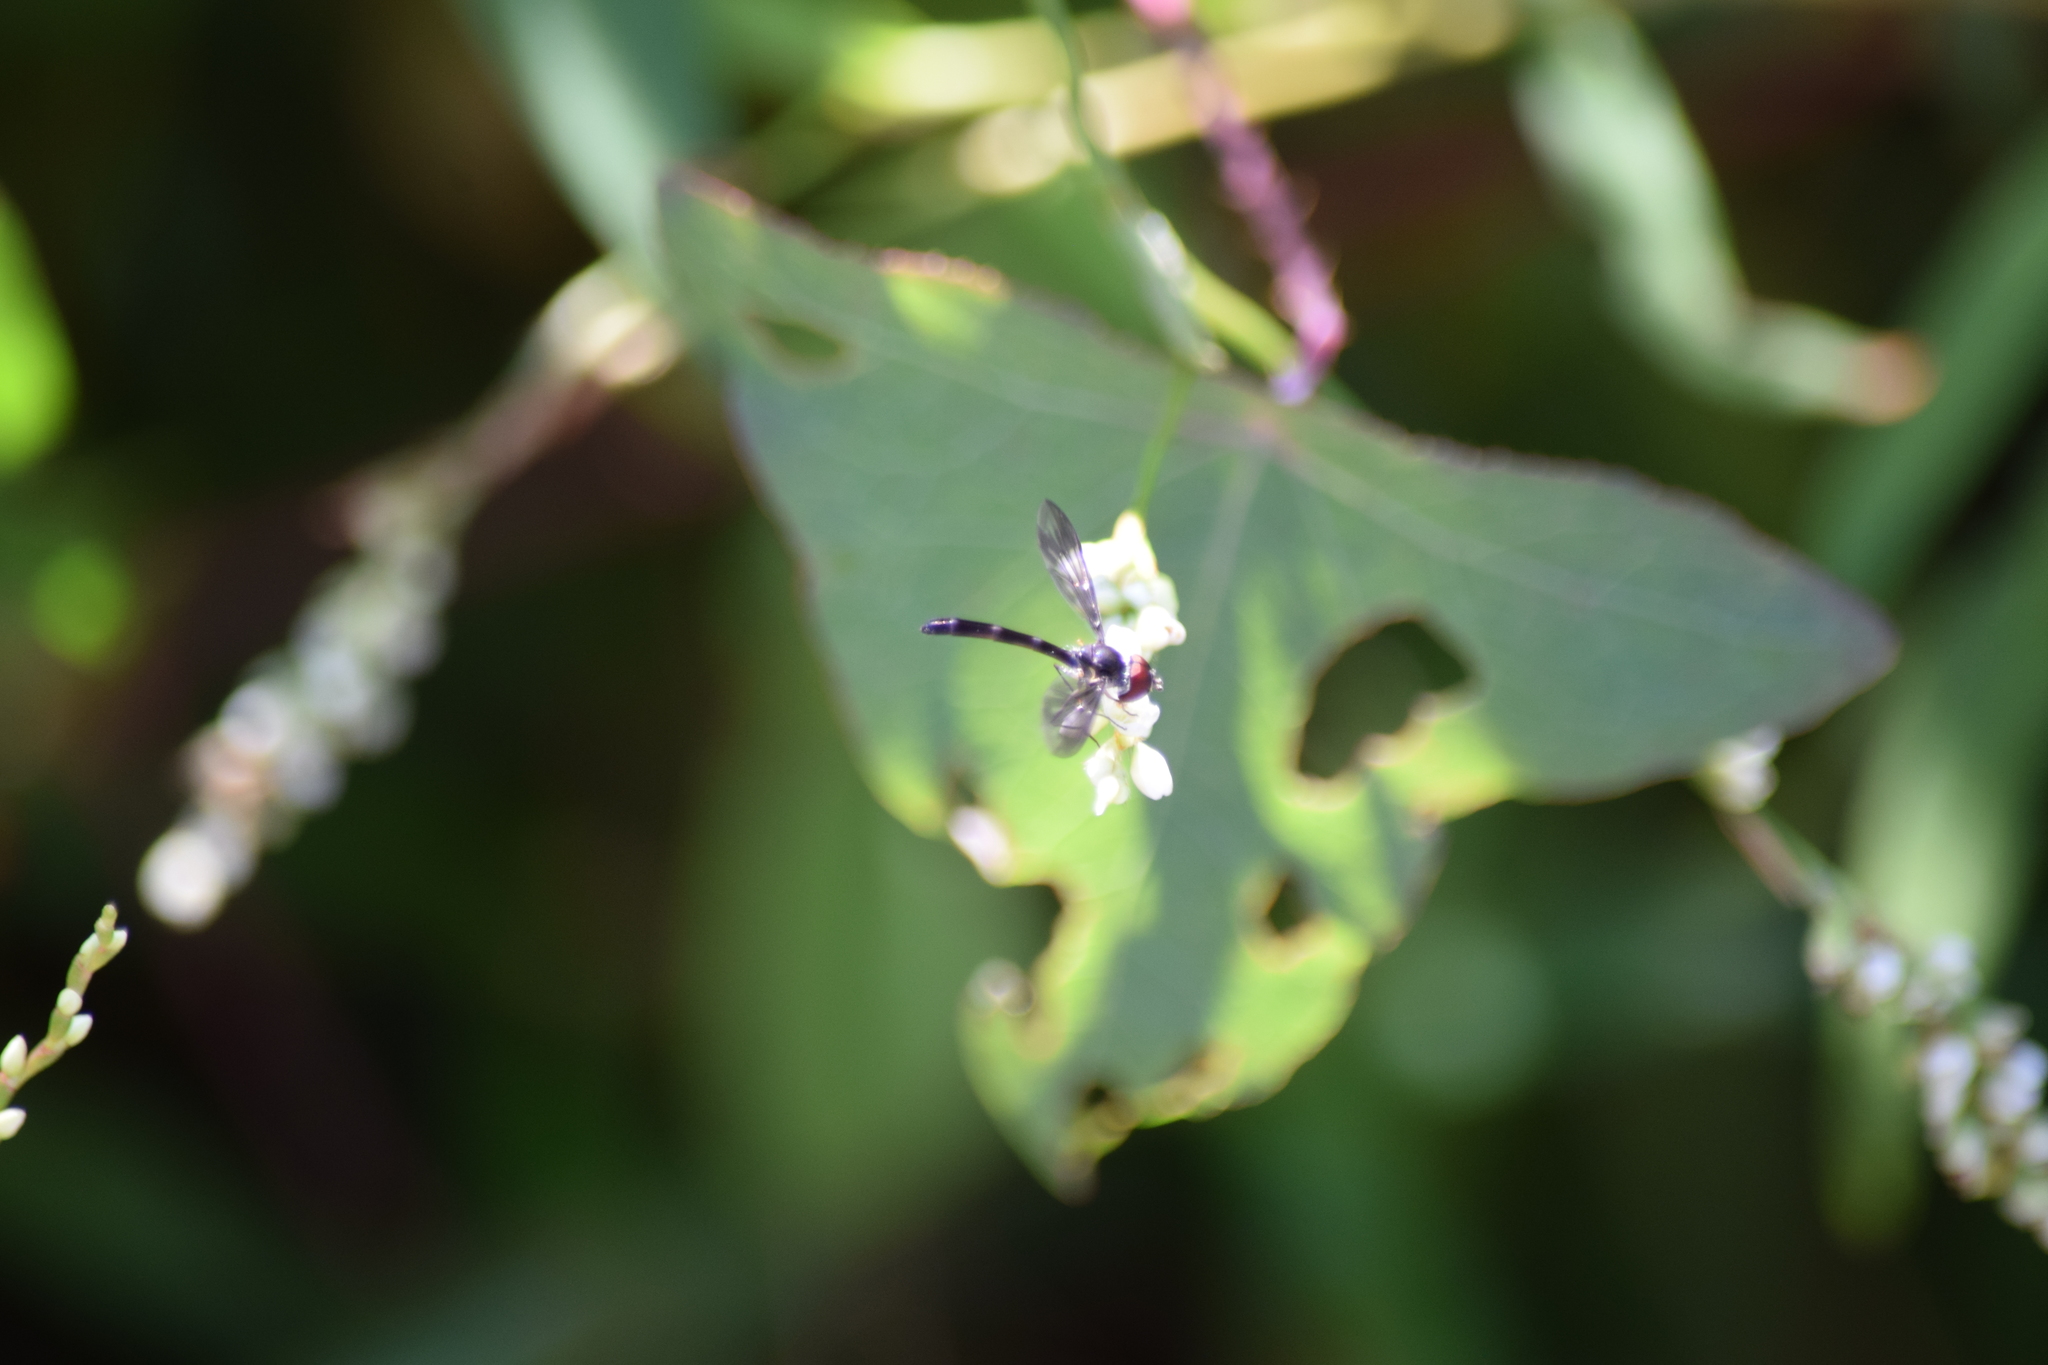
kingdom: Animalia
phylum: Arthropoda
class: Insecta
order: Diptera
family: Syrphidae
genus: Ocyptamus
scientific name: Ocyptamus fuscipennis
